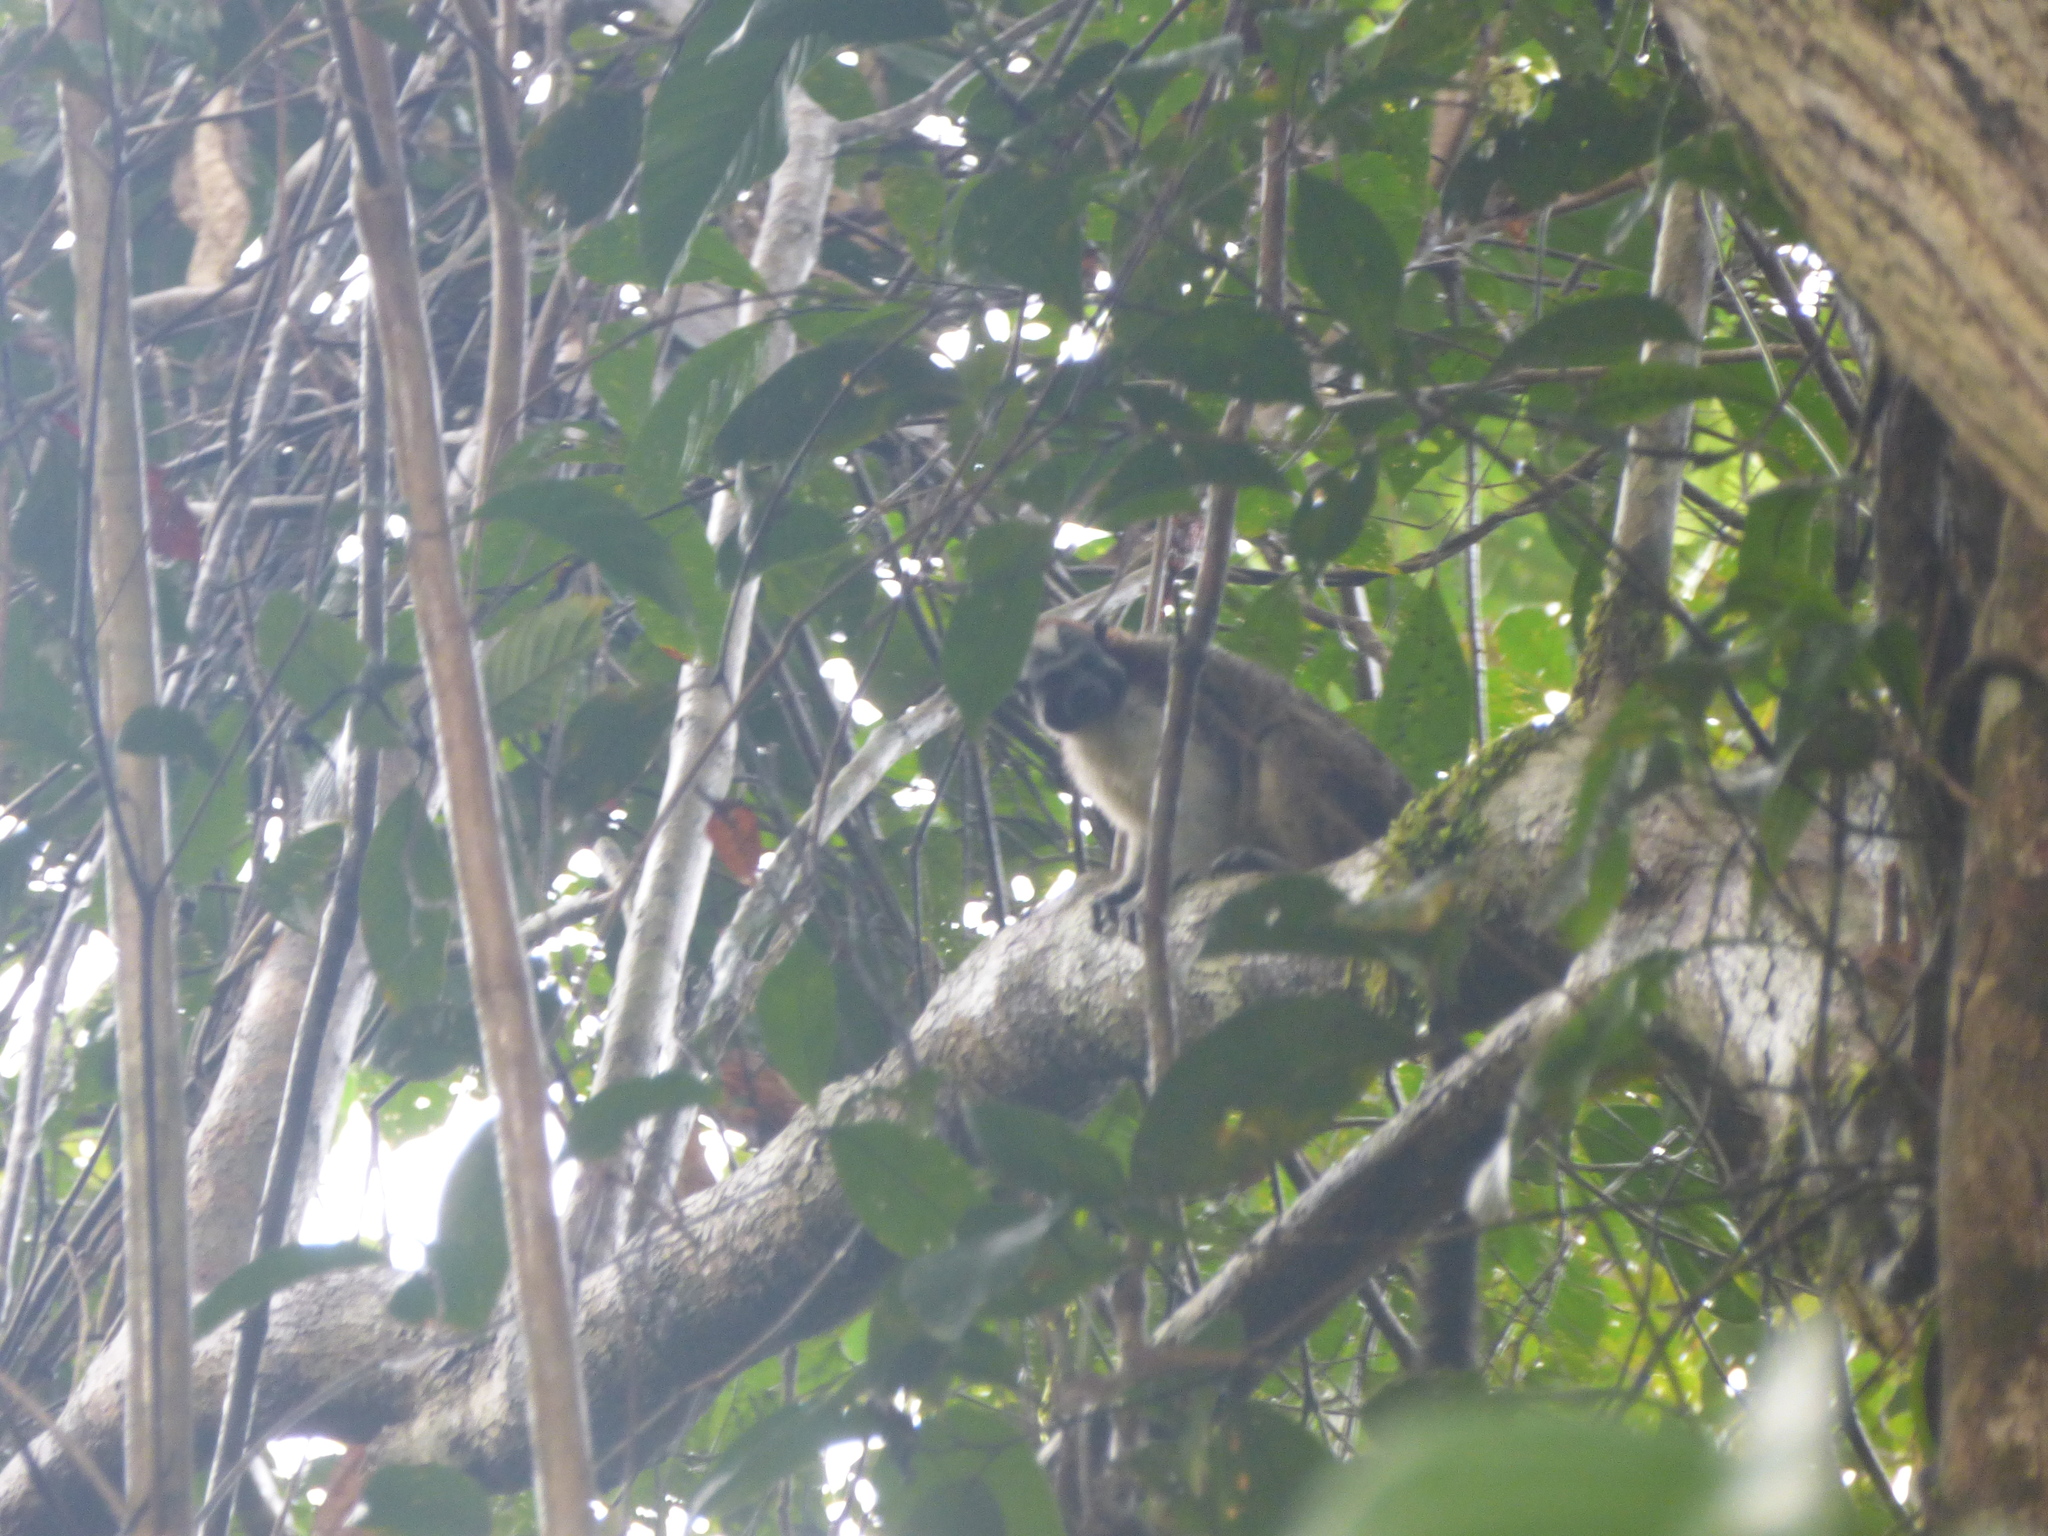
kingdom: Animalia
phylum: Chordata
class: Mammalia
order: Primates
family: Callitrichidae
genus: Saguinus
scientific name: Saguinus geoffroyi
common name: Geoffroy s tamarin
